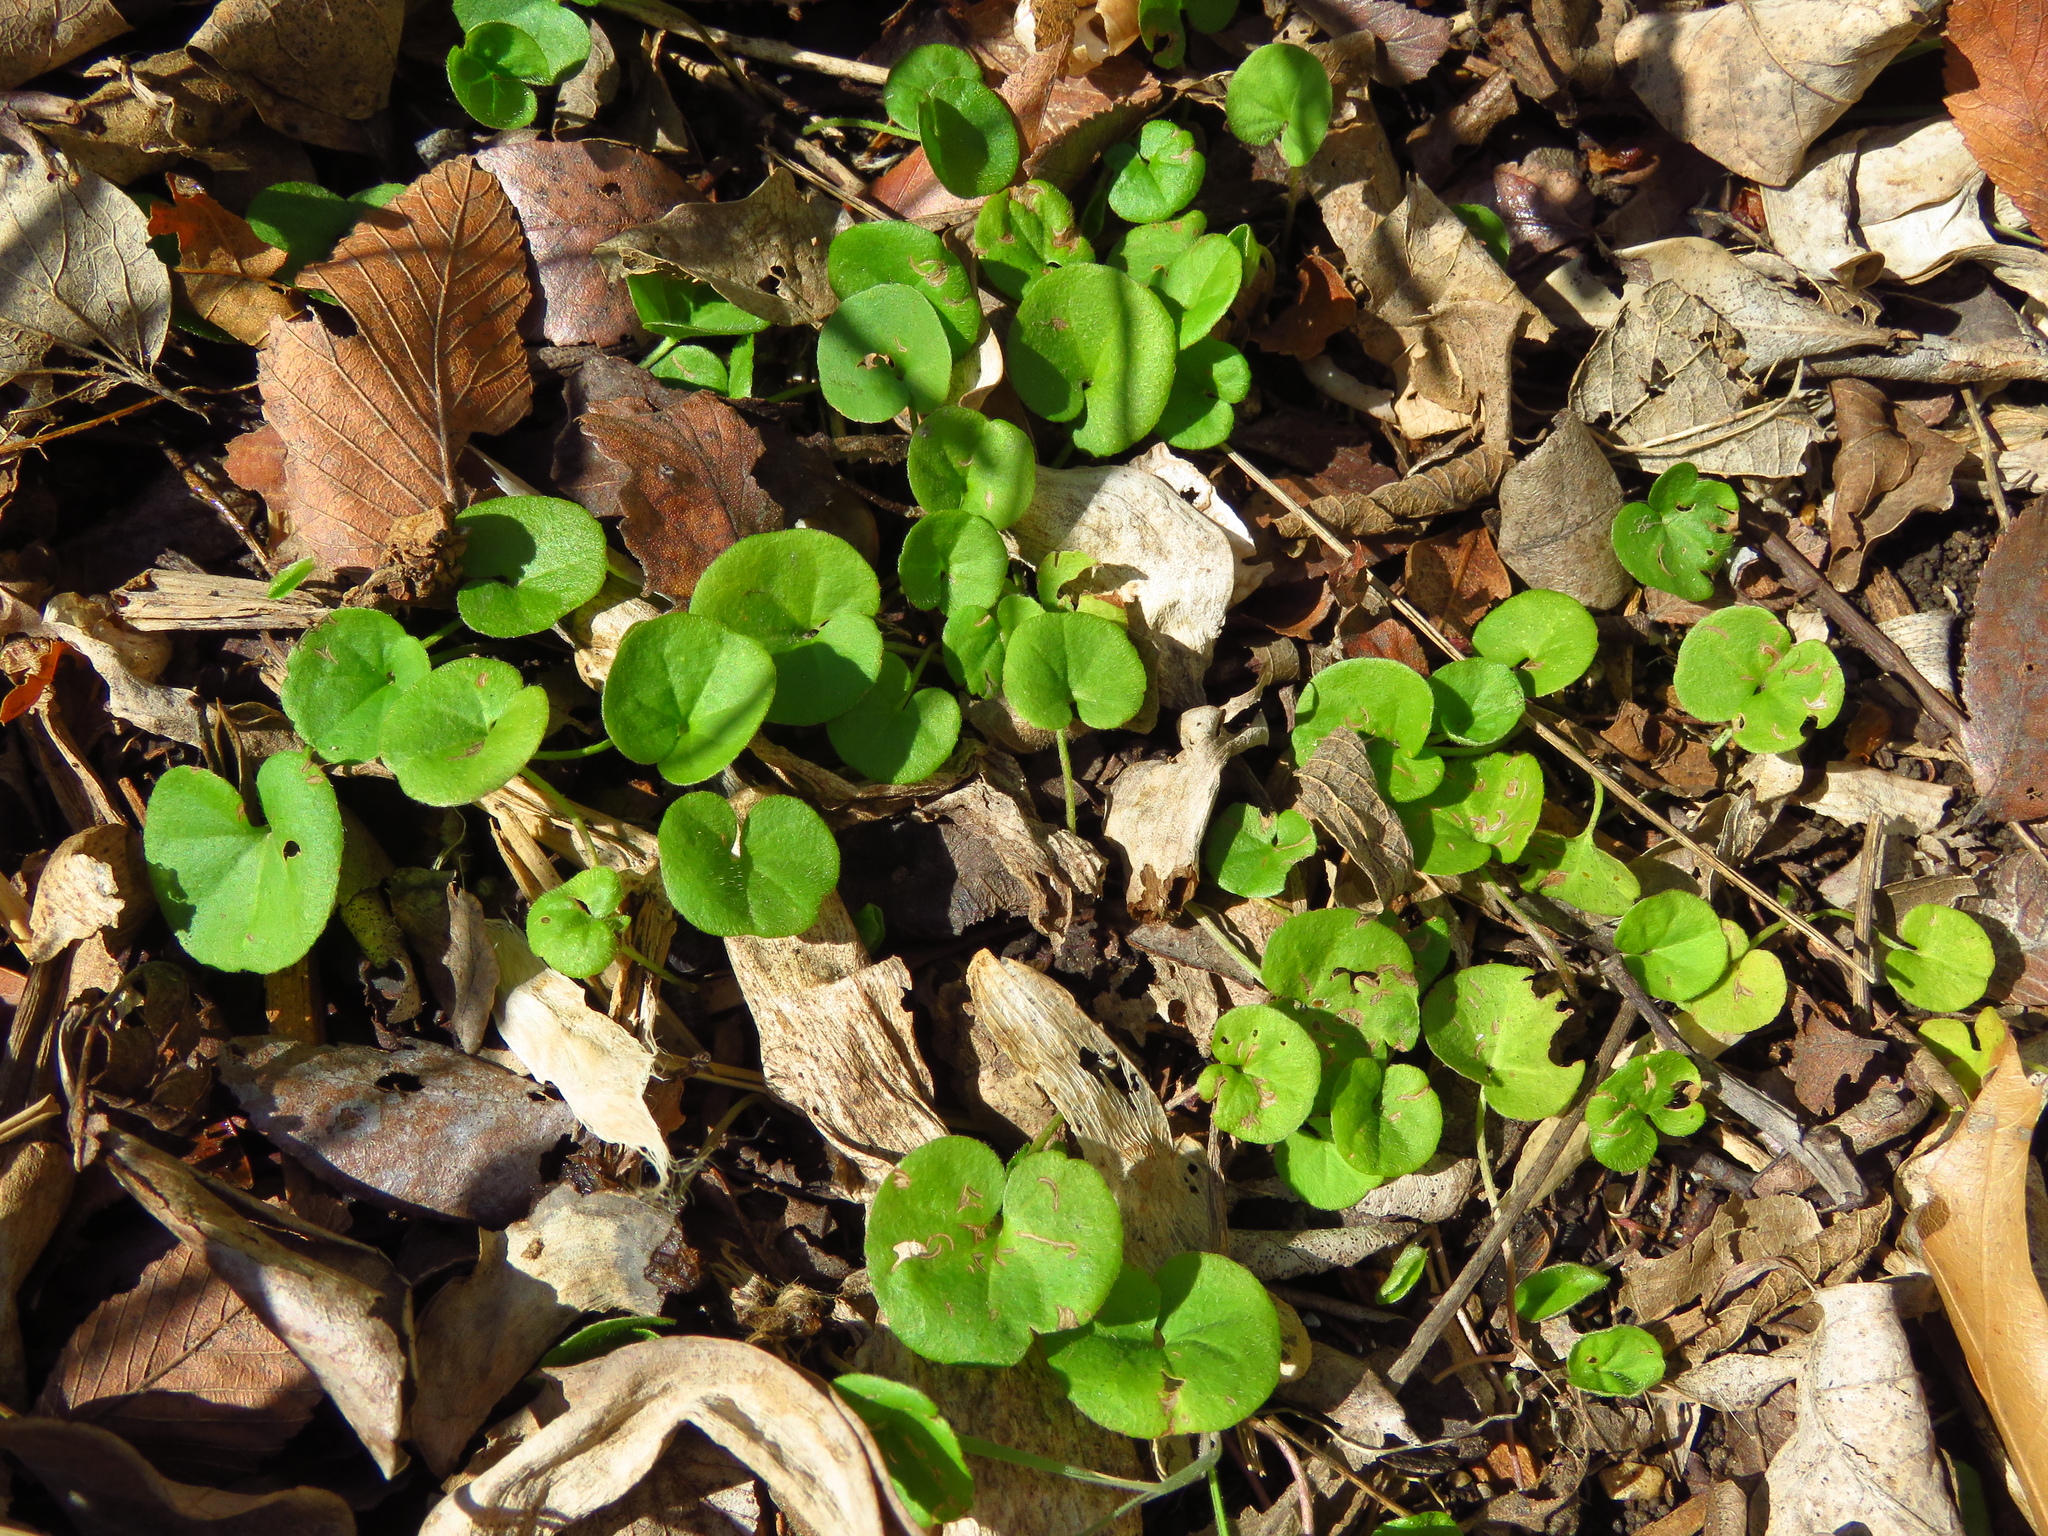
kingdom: Plantae
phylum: Tracheophyta
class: Magnoliopsida
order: Solanales
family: Convolvulaceae
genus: Dichondra
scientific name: Dichondra carolinensis
